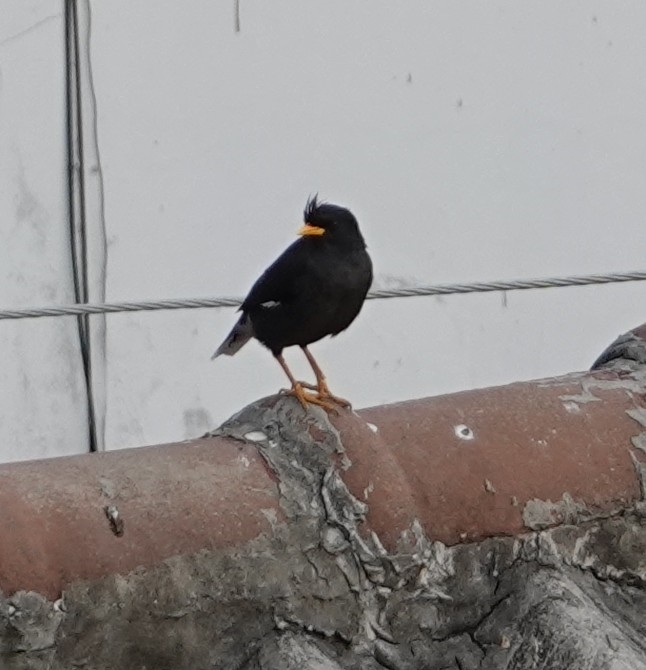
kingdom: Animalia
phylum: Chordata
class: Aves
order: Passeriformes
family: Sturnidae
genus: Acridotheres
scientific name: Acridotheres grandis
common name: Great myna
